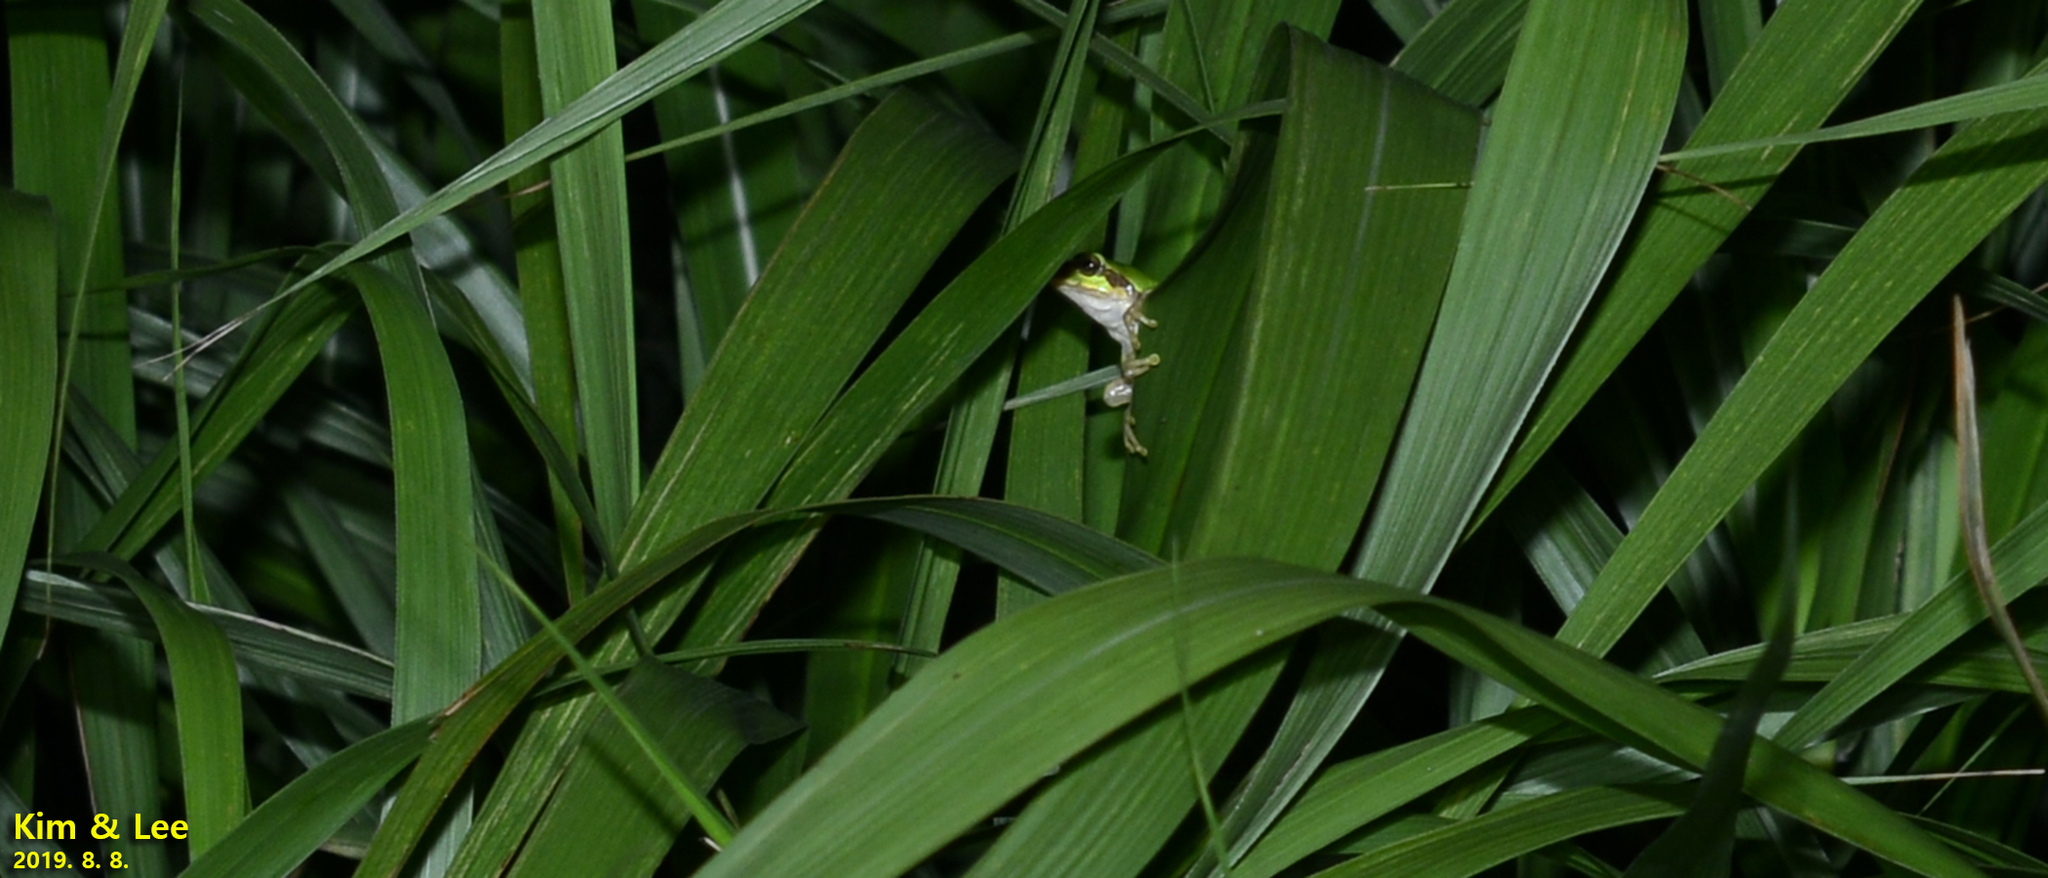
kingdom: Animalia
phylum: Chordata
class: Amphibia
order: Anura
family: Hylidae
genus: Dryophytes
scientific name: Dryophytes japonicus
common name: Japanese treefrog
